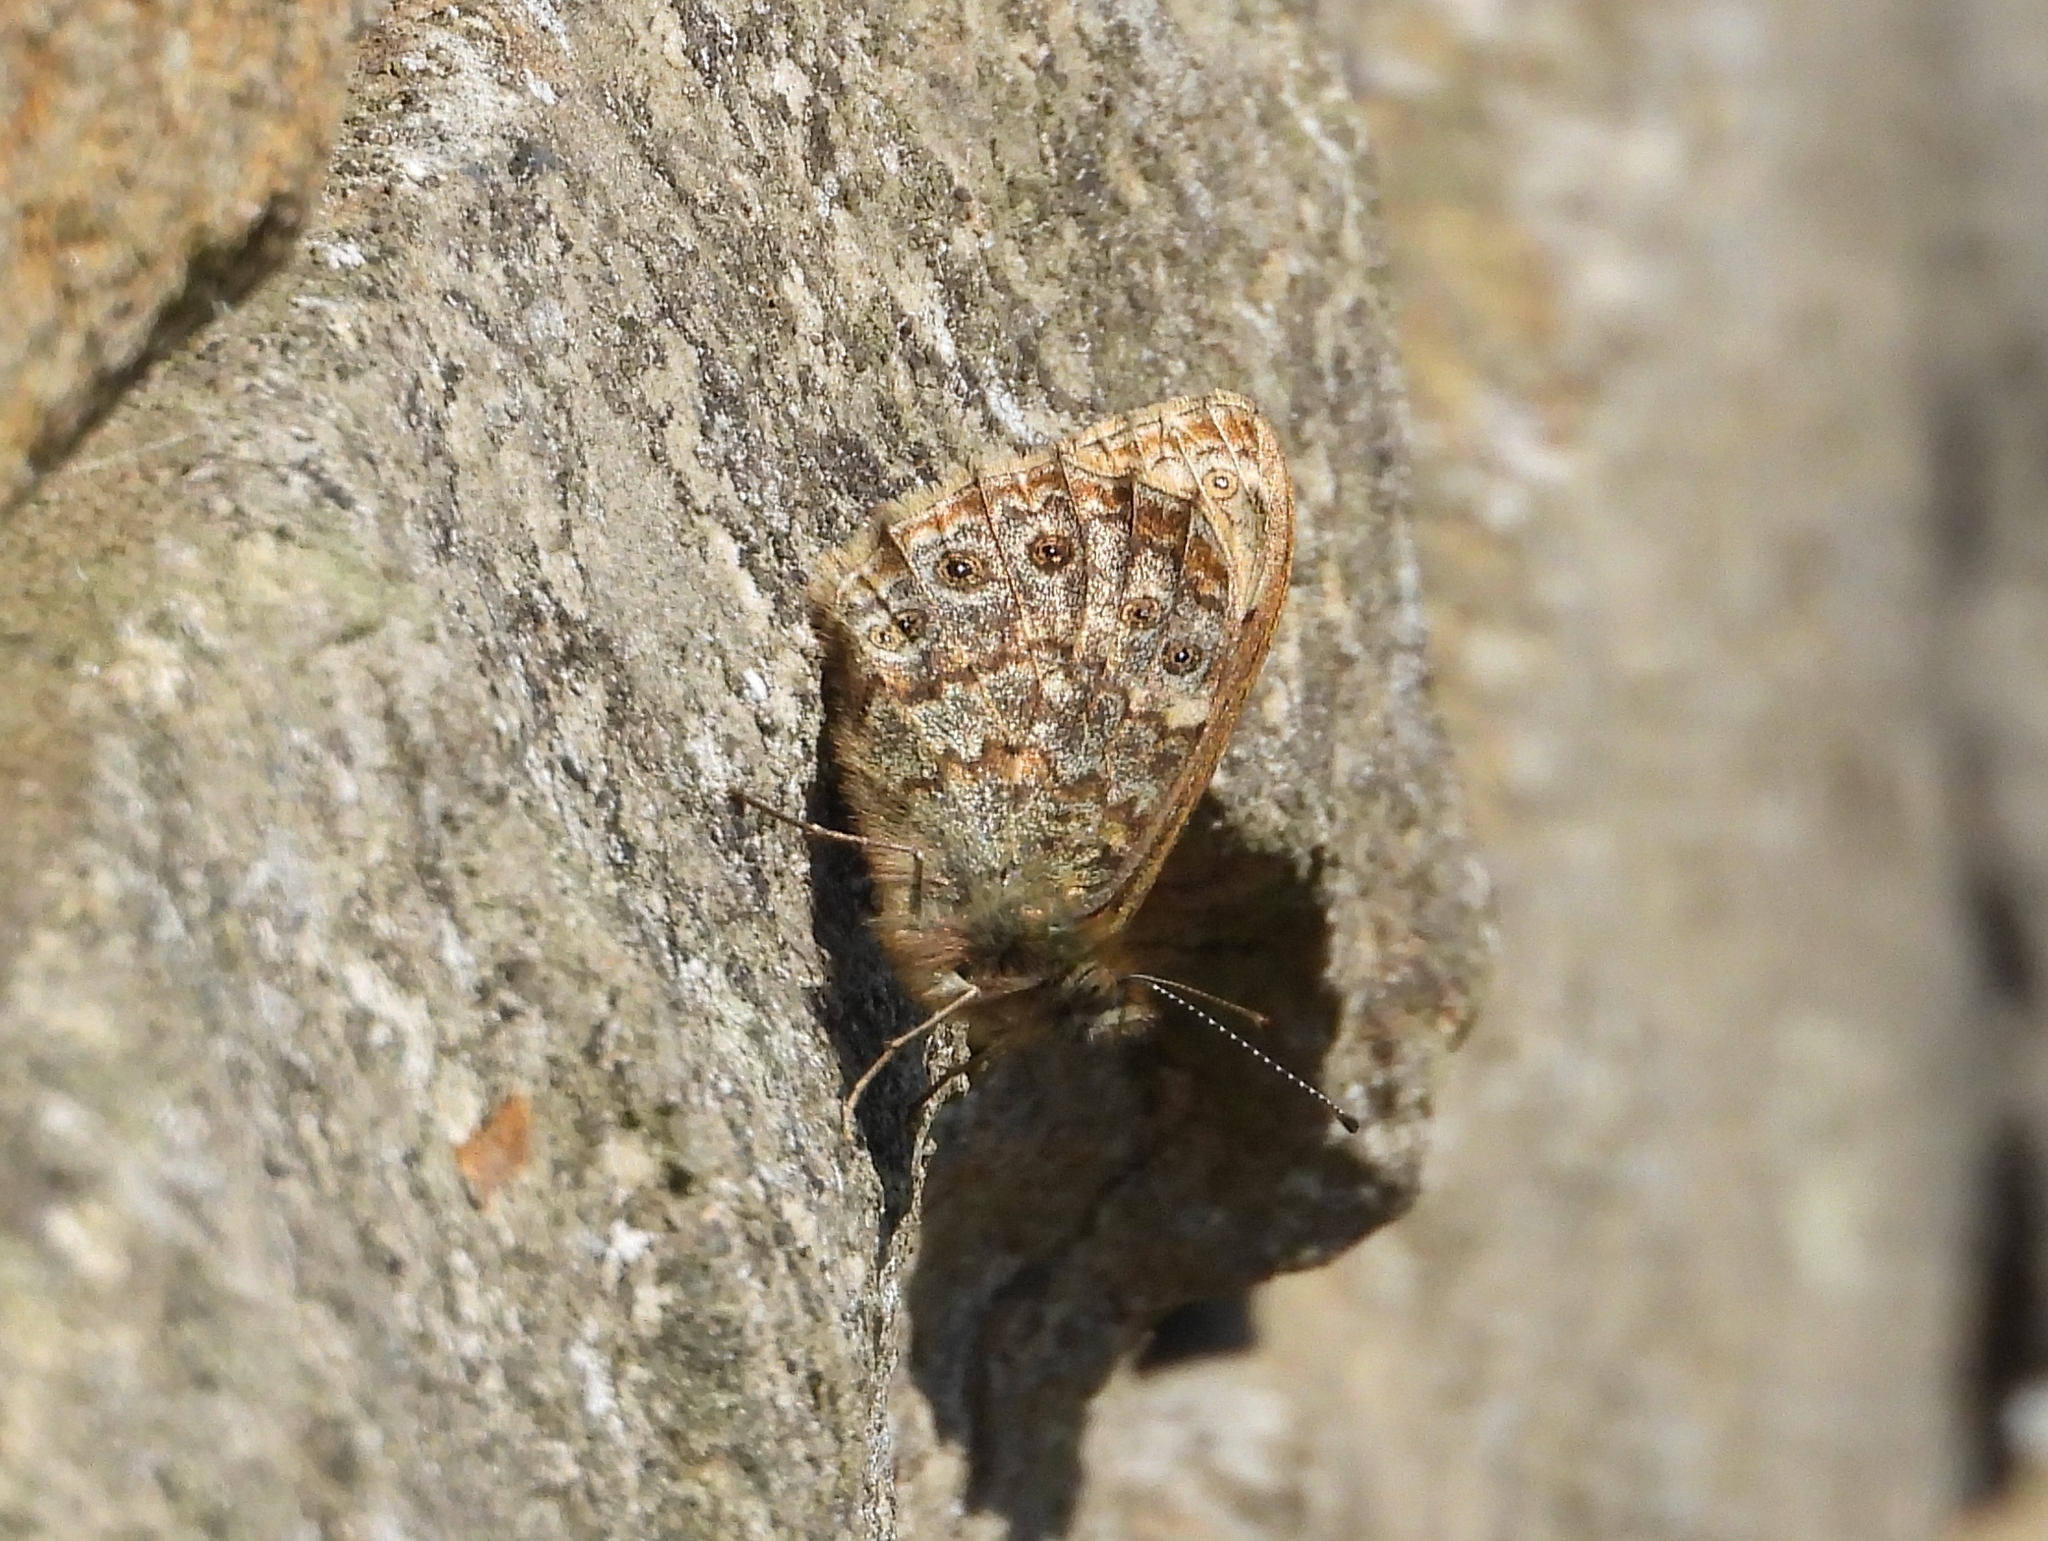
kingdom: Animalia
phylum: Arthropoda
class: Insecta
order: Lepidoptera
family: Nymphalidae
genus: Pararge
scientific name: Pararge Lasiommata megera
